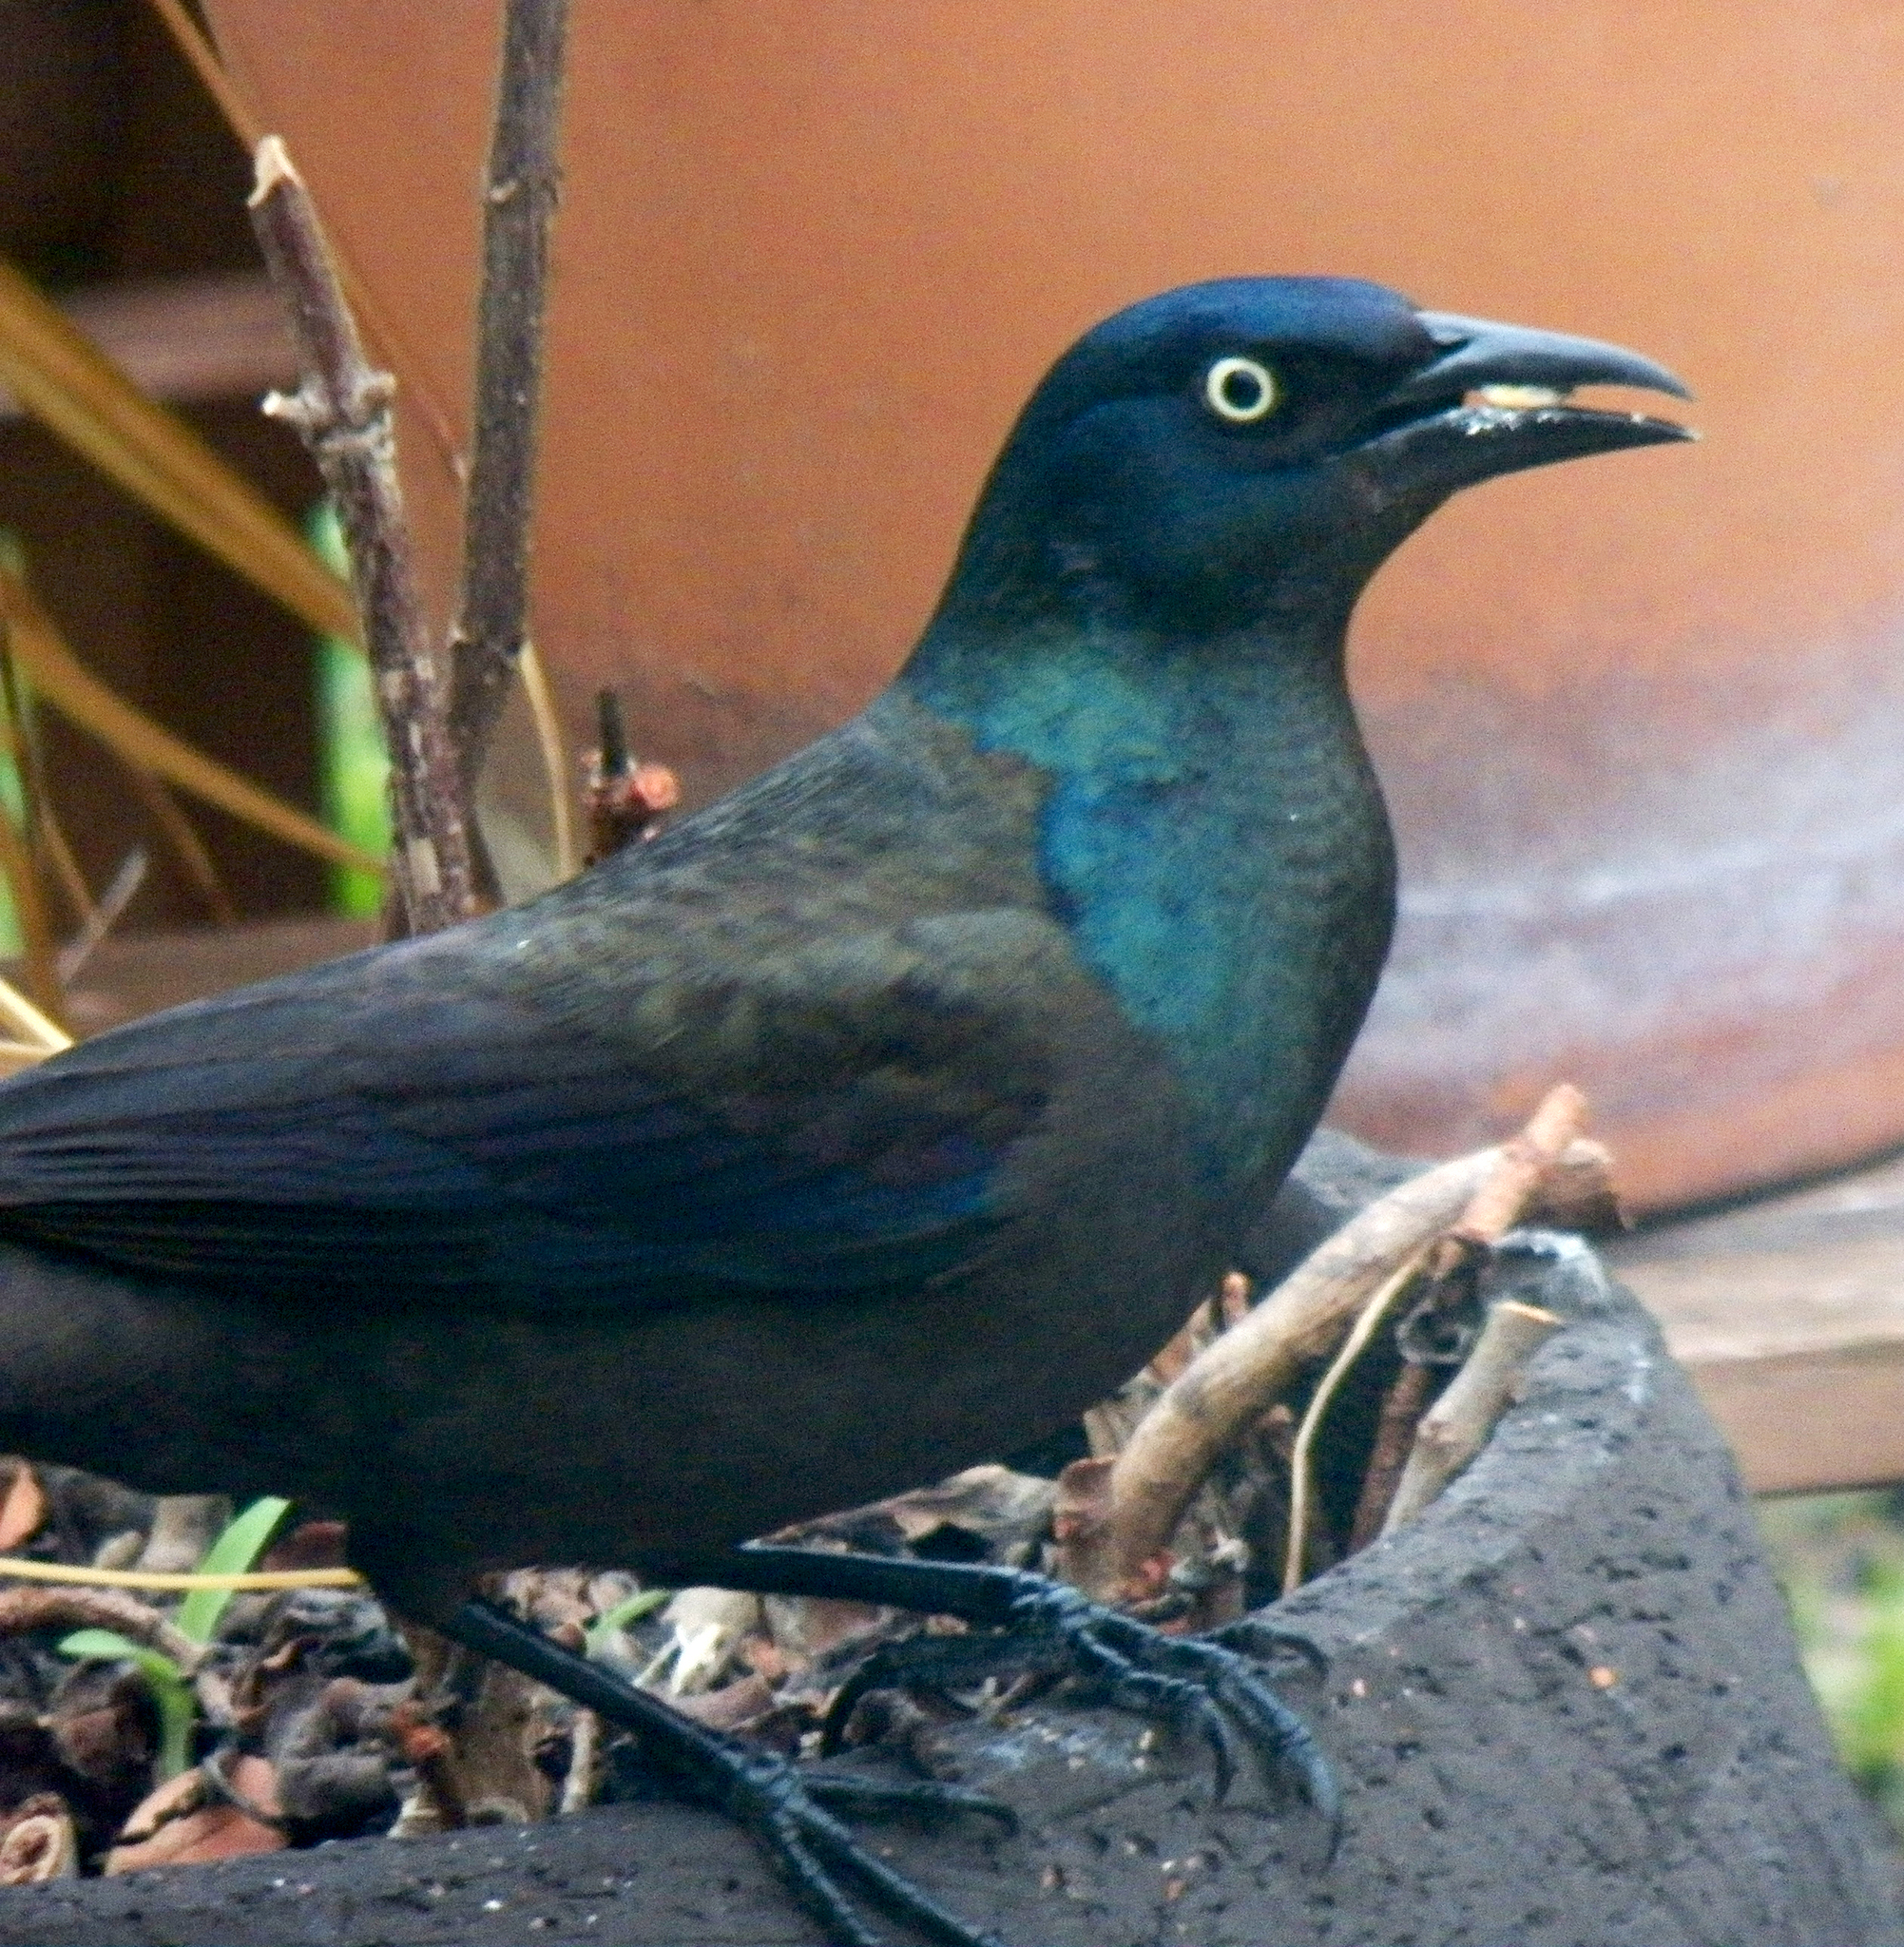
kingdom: Animalia
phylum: Chordata
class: Aves
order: Passeriformes
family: Icteridae
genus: Quiscalus
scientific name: Quiscalus quiscula
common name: Common grackle
